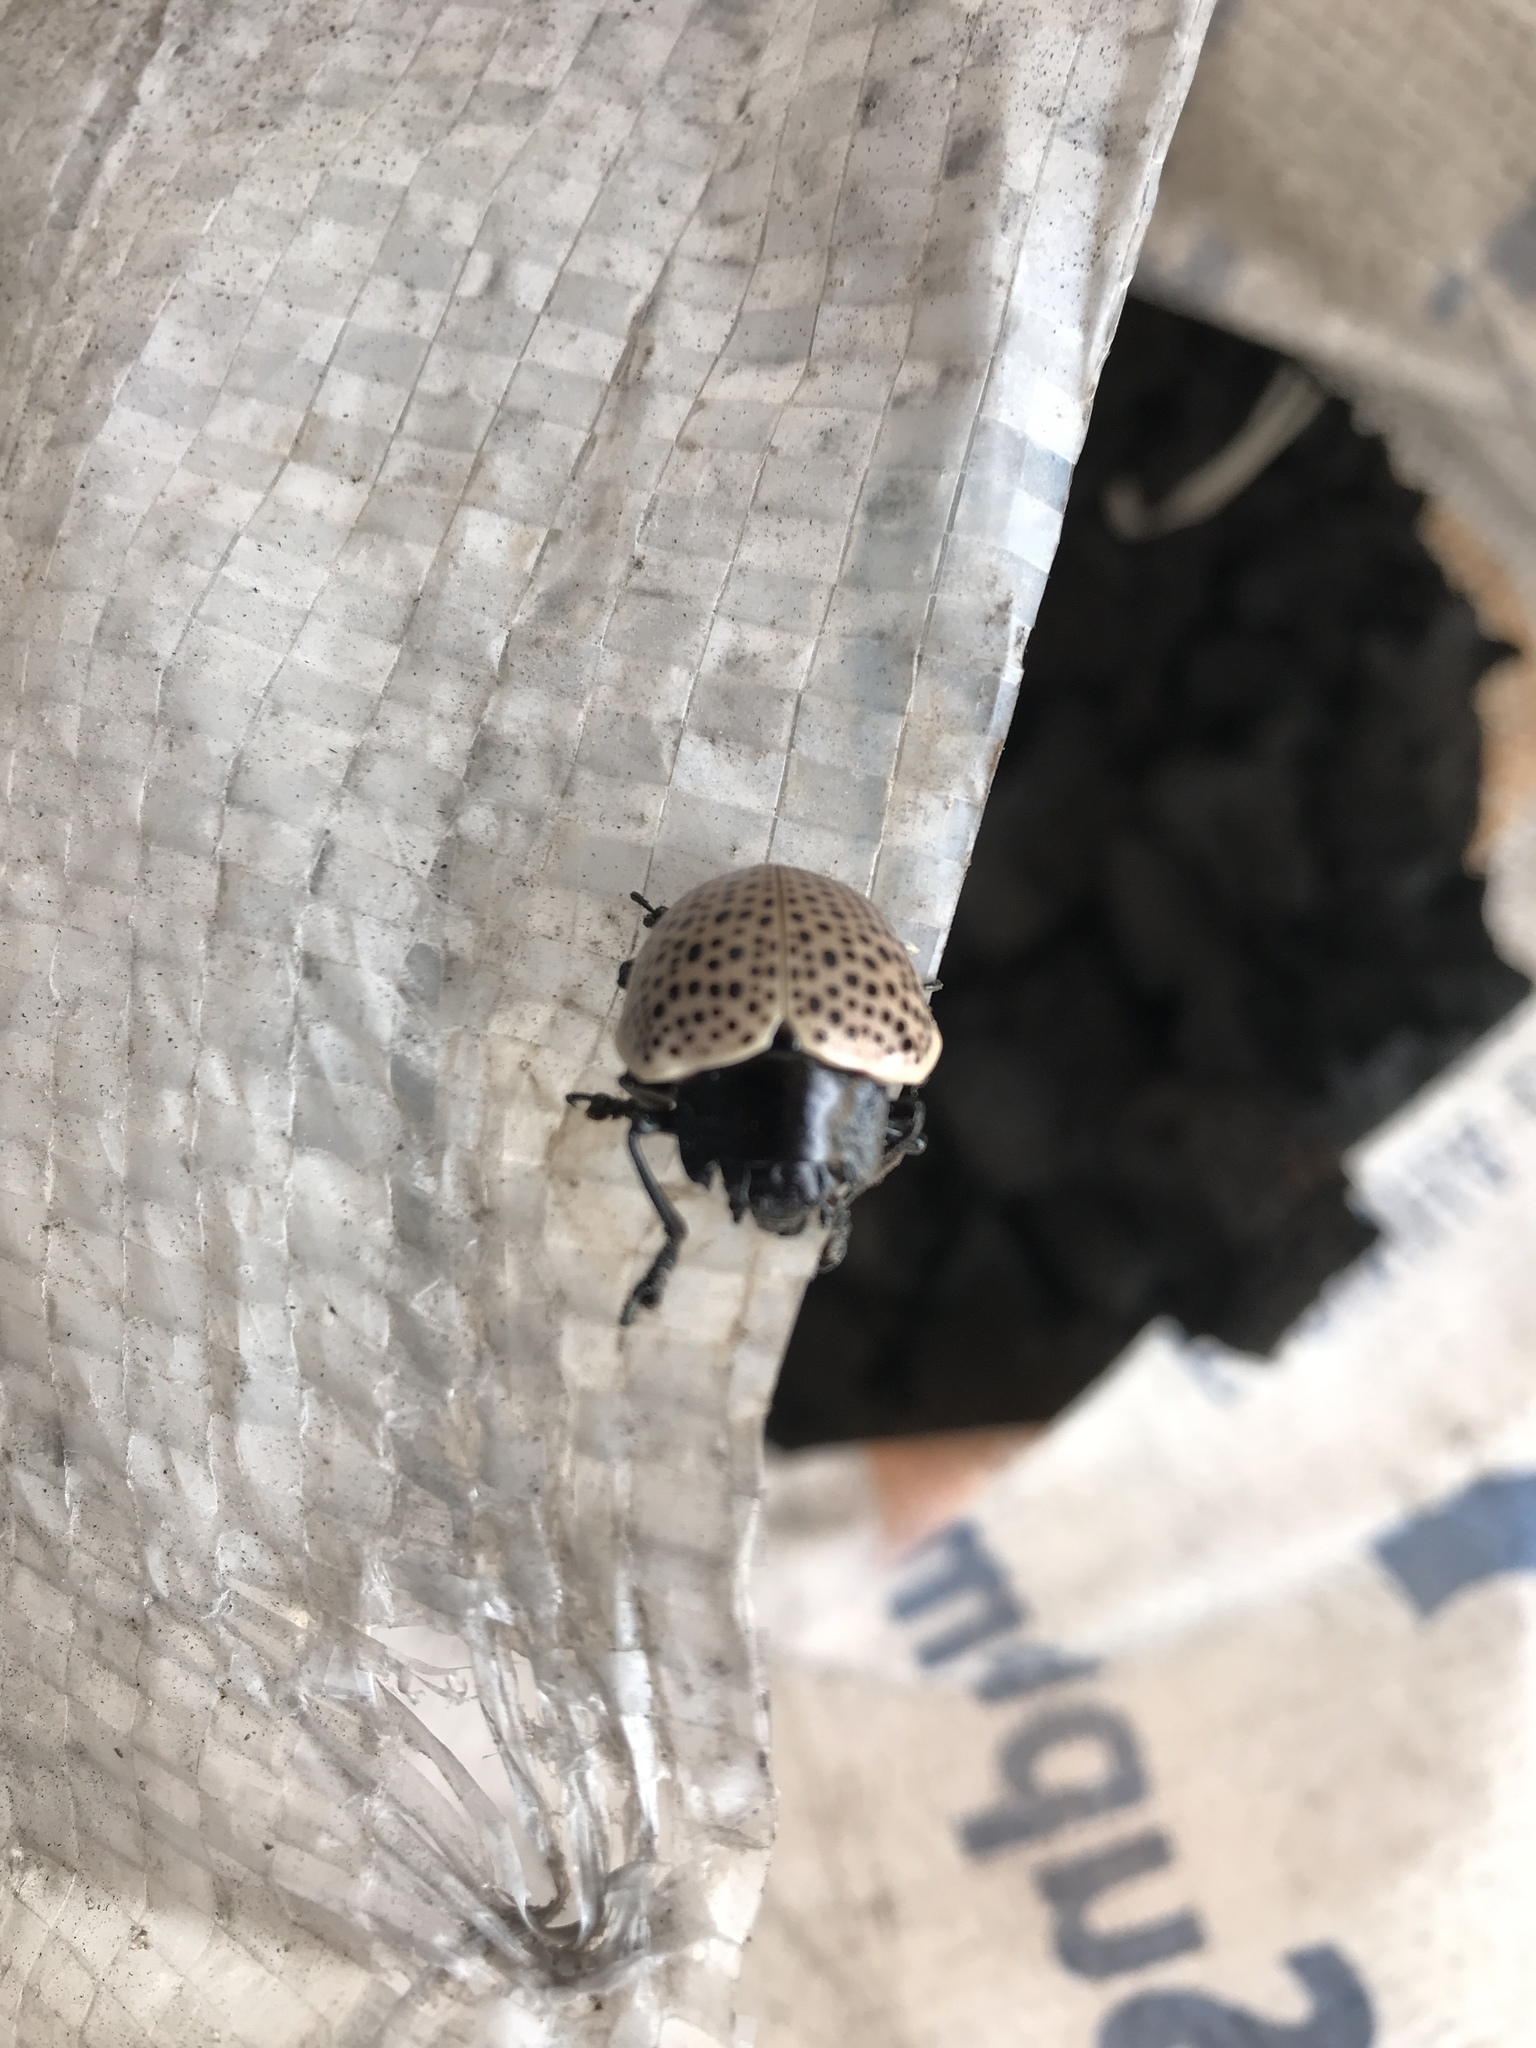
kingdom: Animalia
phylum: Arthropoda
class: Insecta
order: Lepidoptera
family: Gelechiidae
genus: Doryphora
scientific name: Doryphora
